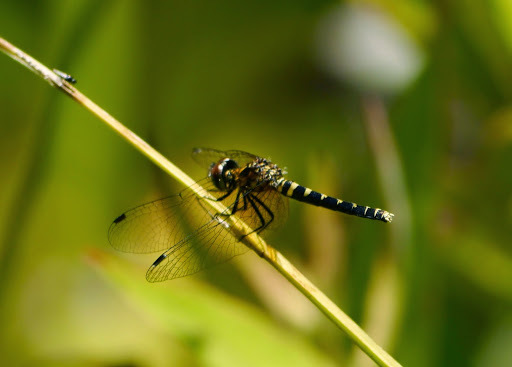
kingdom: Animalia
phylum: Arthropoda
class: Insecta
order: Odonata
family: Libellulidae
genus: Nannothemis
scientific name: Nannothemis bella
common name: Elfin skimmer
